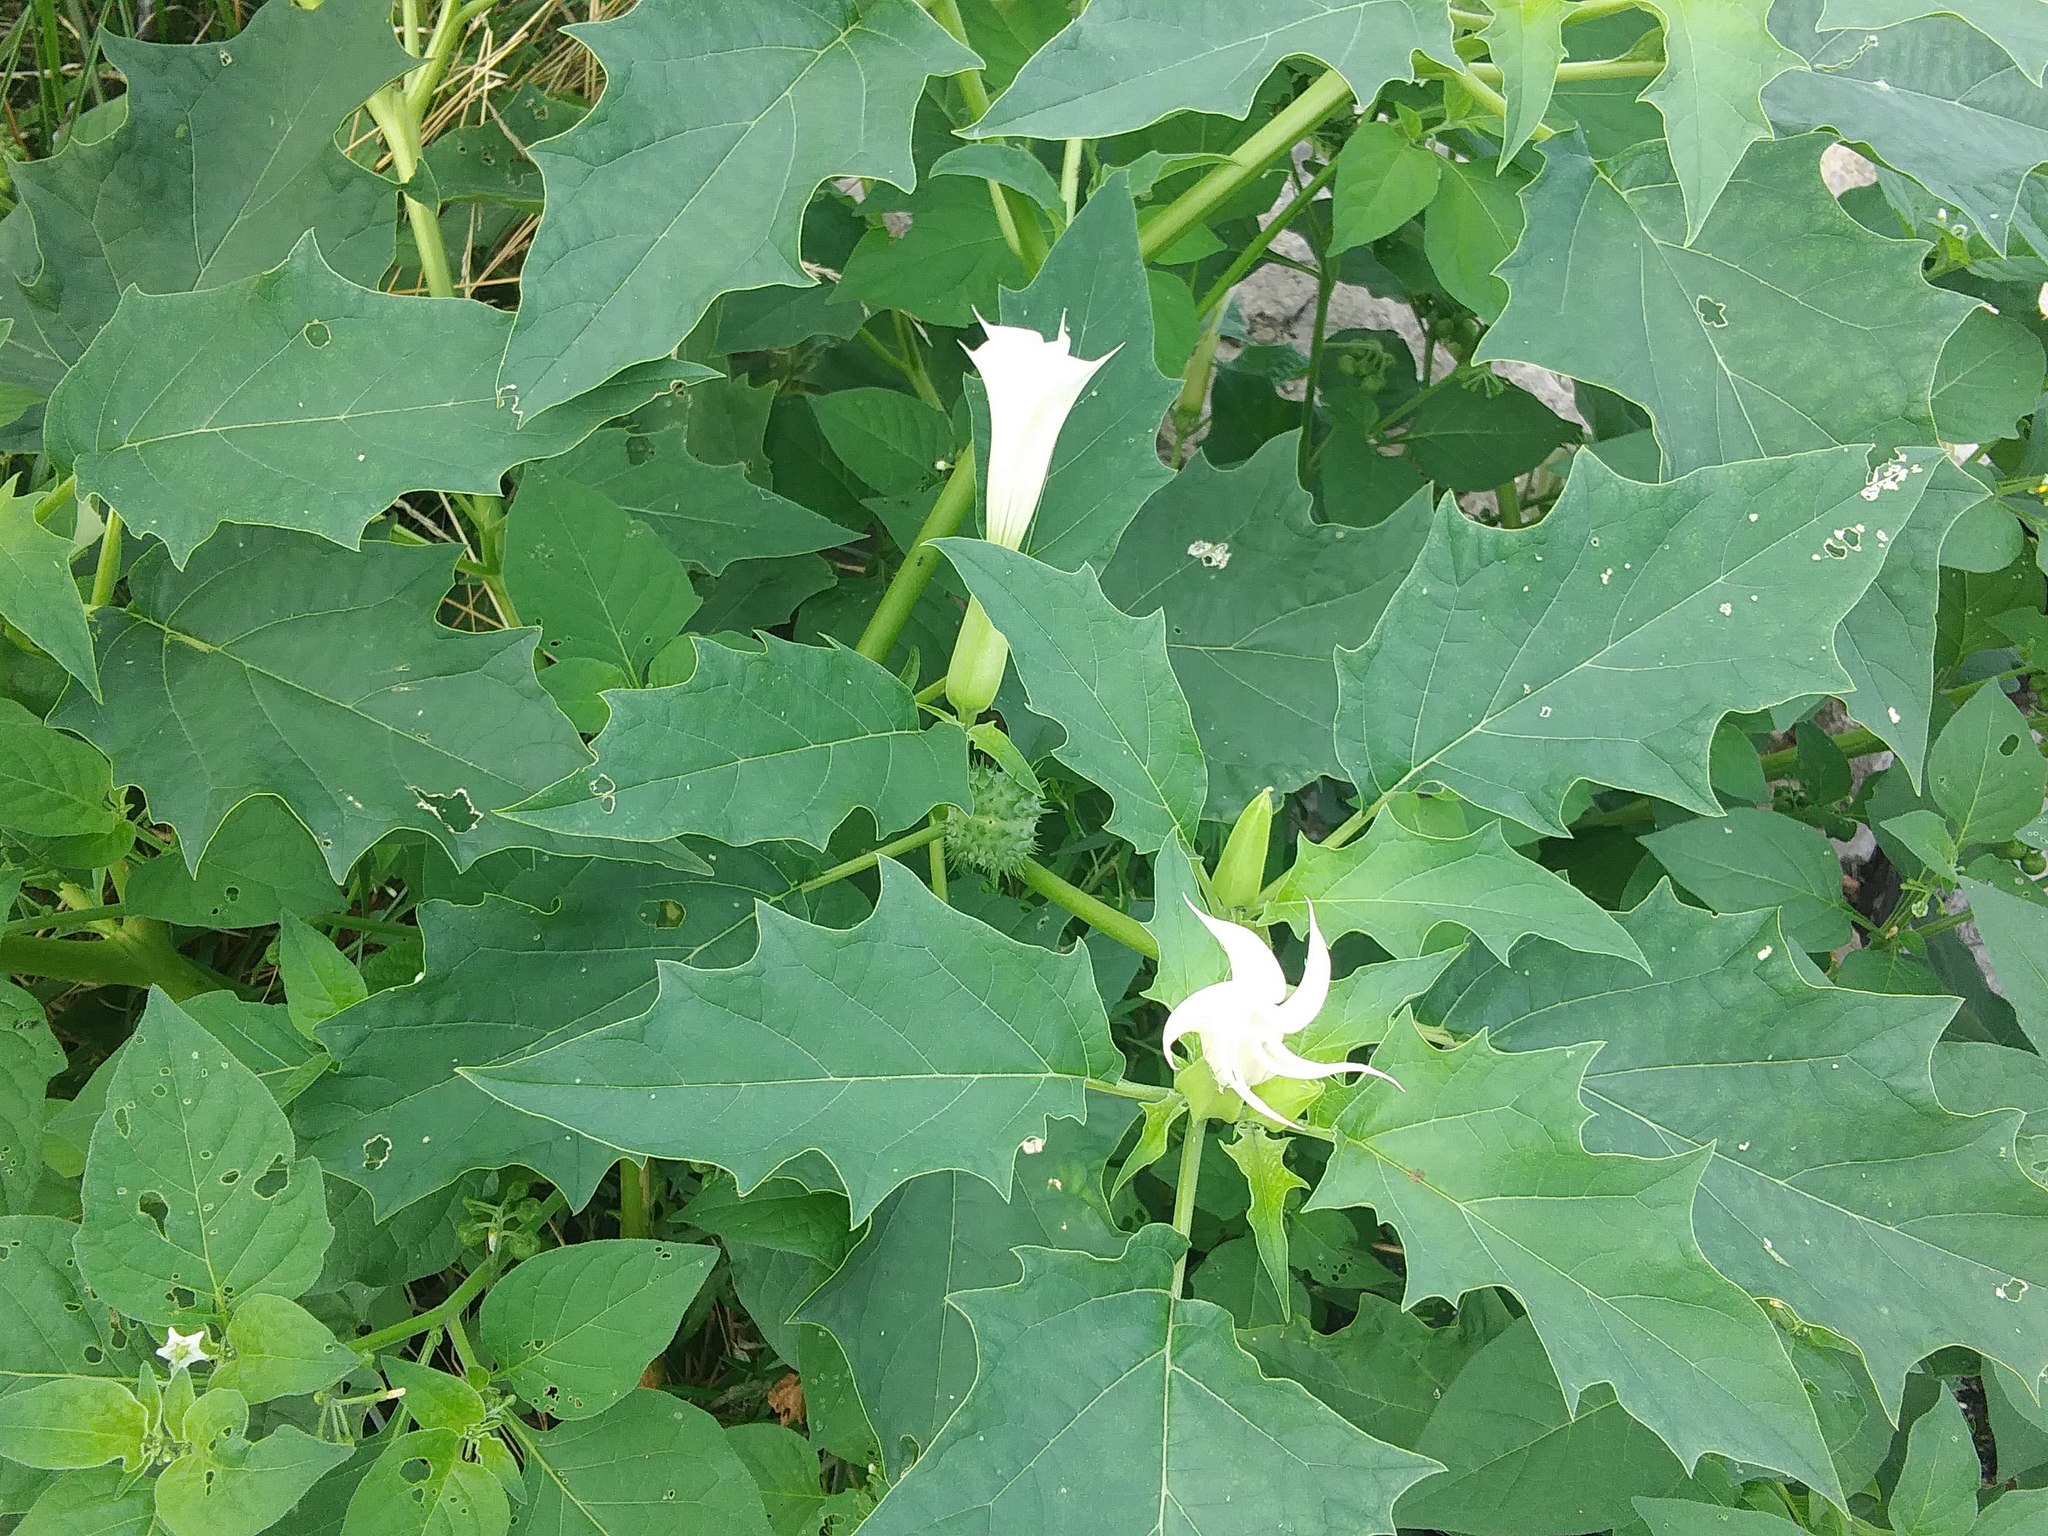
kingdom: Plantae
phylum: Tracheophyta
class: Magnoliopsida
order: Solanales
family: Solanaceae
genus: Datura
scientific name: Datura stramonium
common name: Thorn-apple
